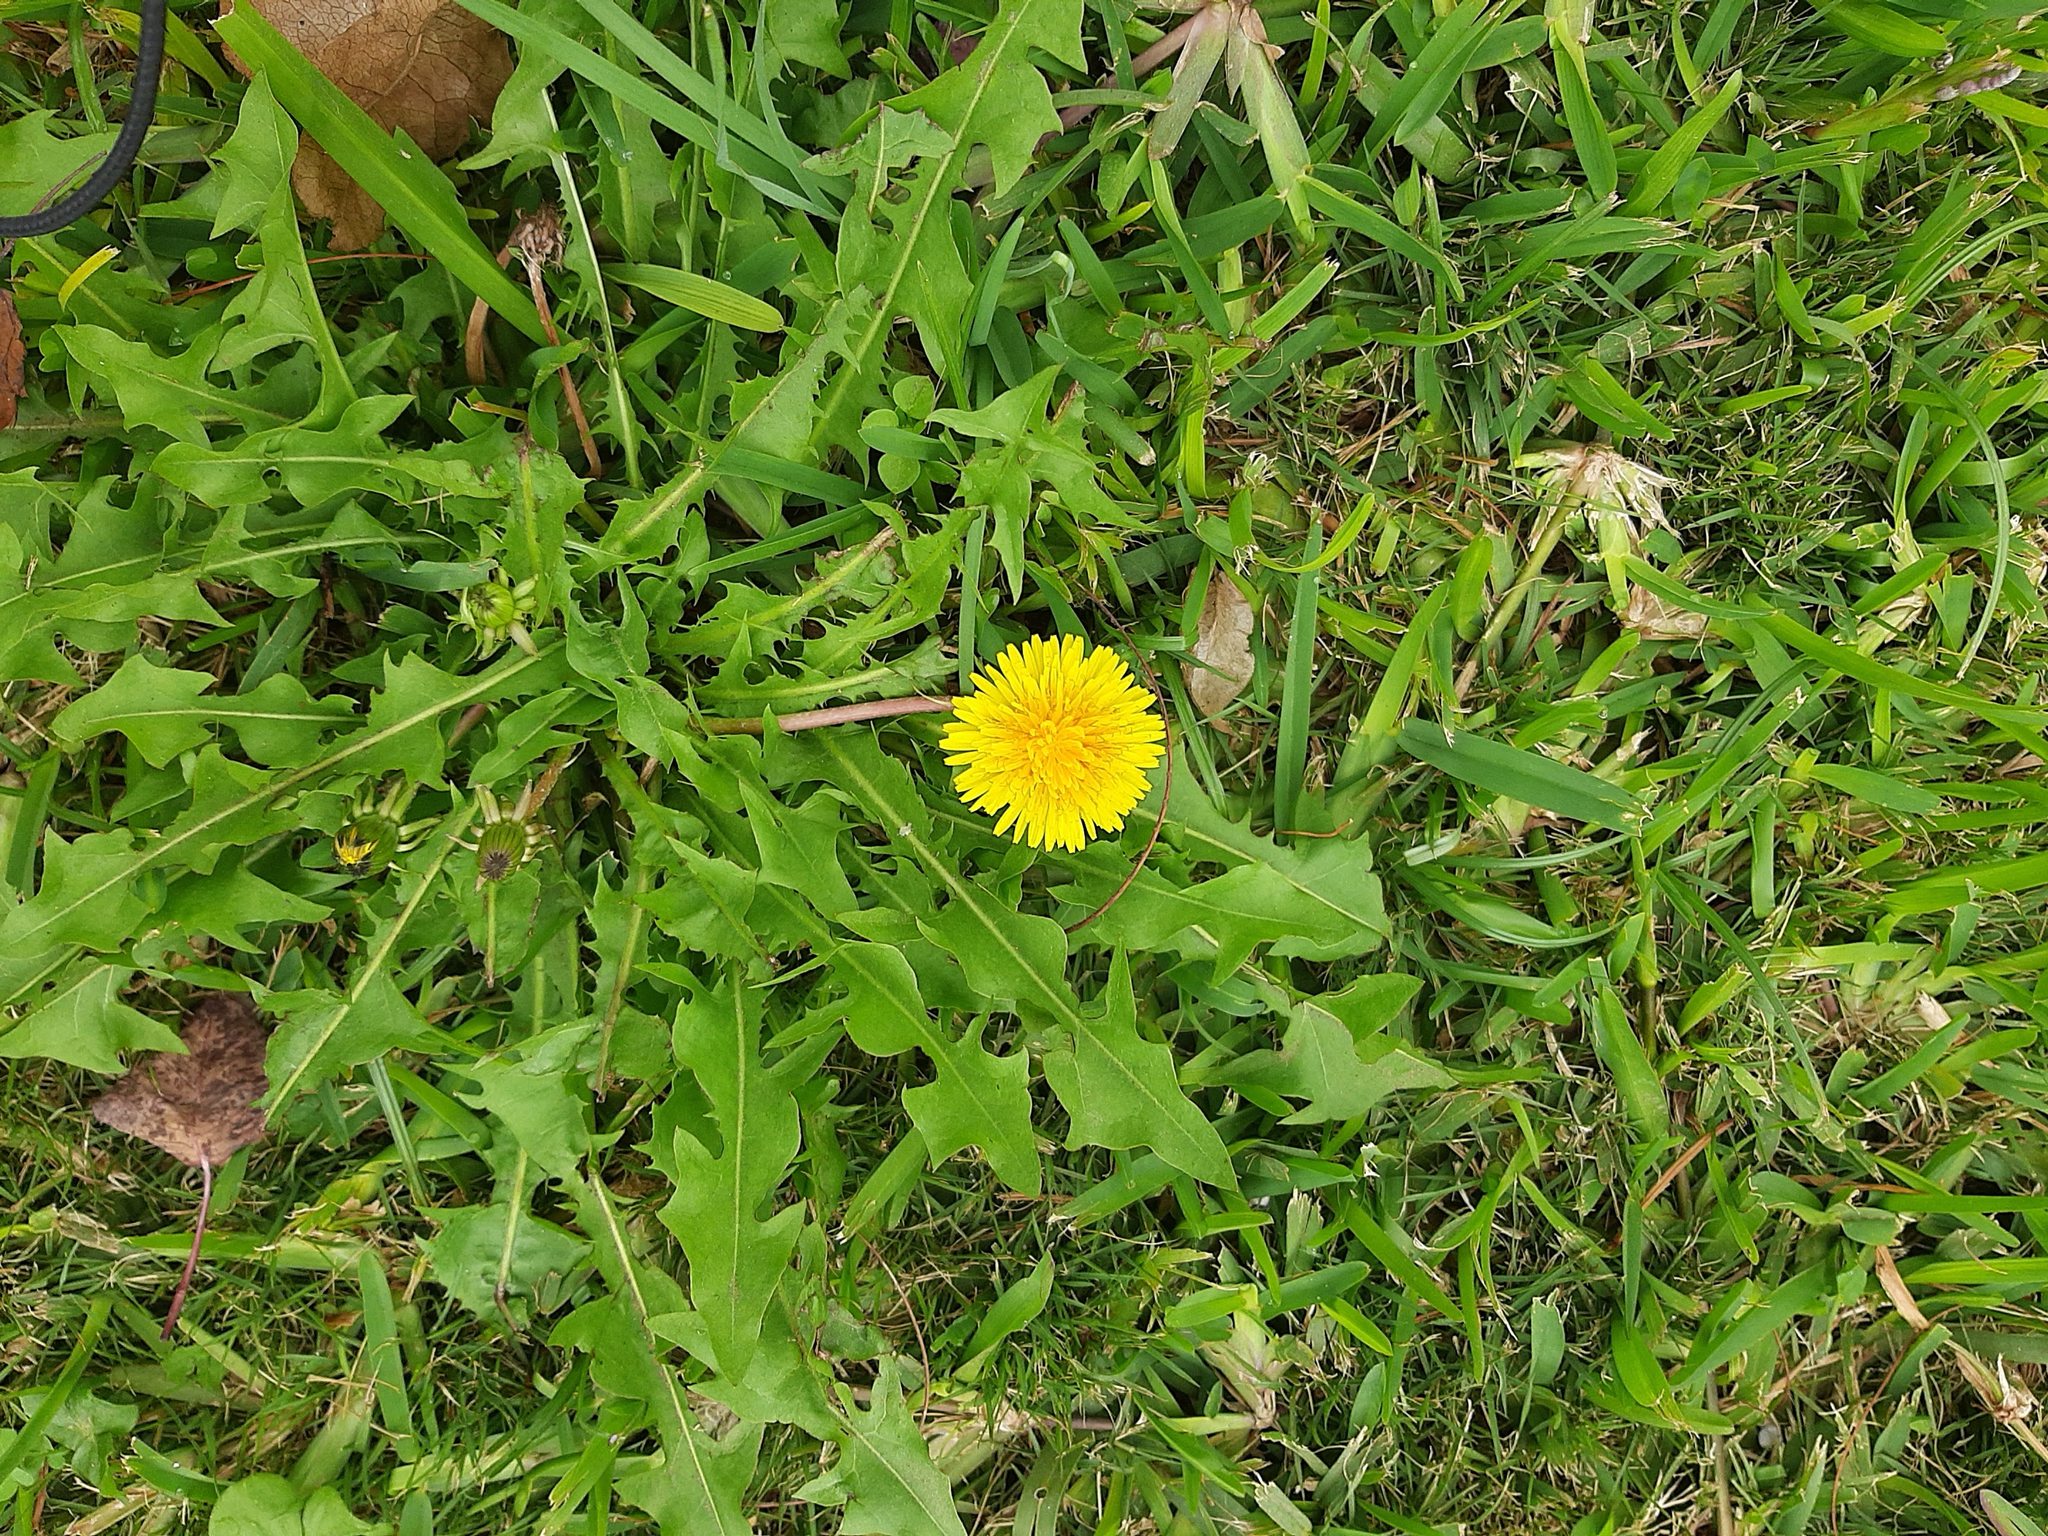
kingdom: Plantae
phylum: Tracheophyta
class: Magnoliopsida
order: Asterales
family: Asteraceae
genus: Taraxacum
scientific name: Taraxacum officinale
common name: Common dandelion
